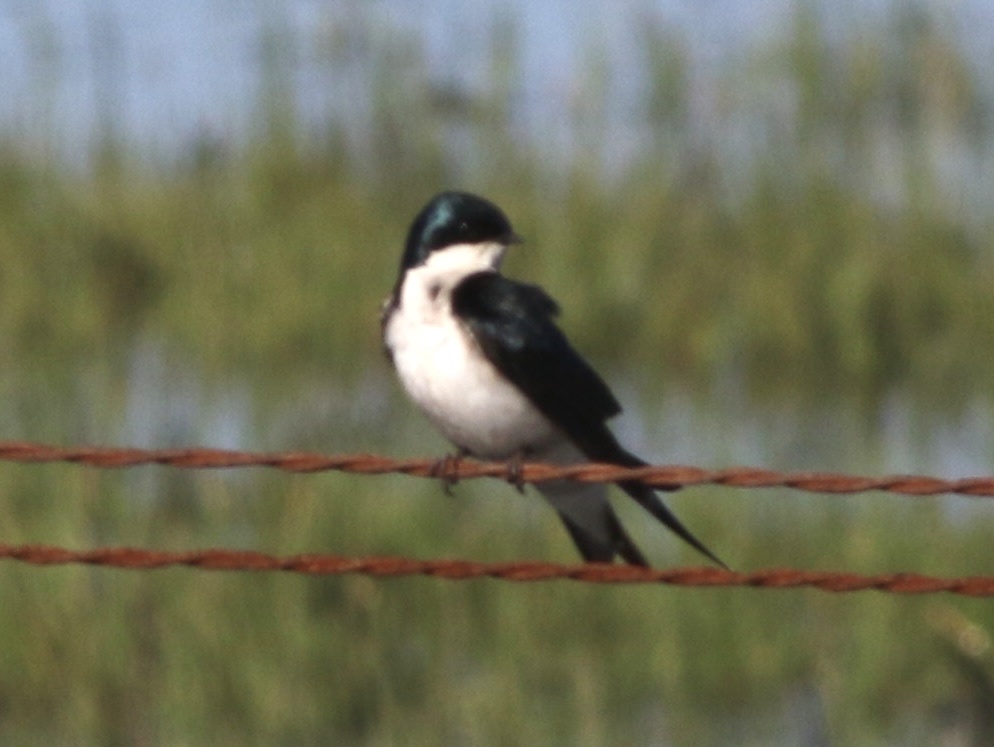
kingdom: Animalia
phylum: Chordata
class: Aves
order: Passeriformes
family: Hirundinidae
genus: Tachycineta
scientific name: Tachycineta bicolor
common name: Tree swallow
